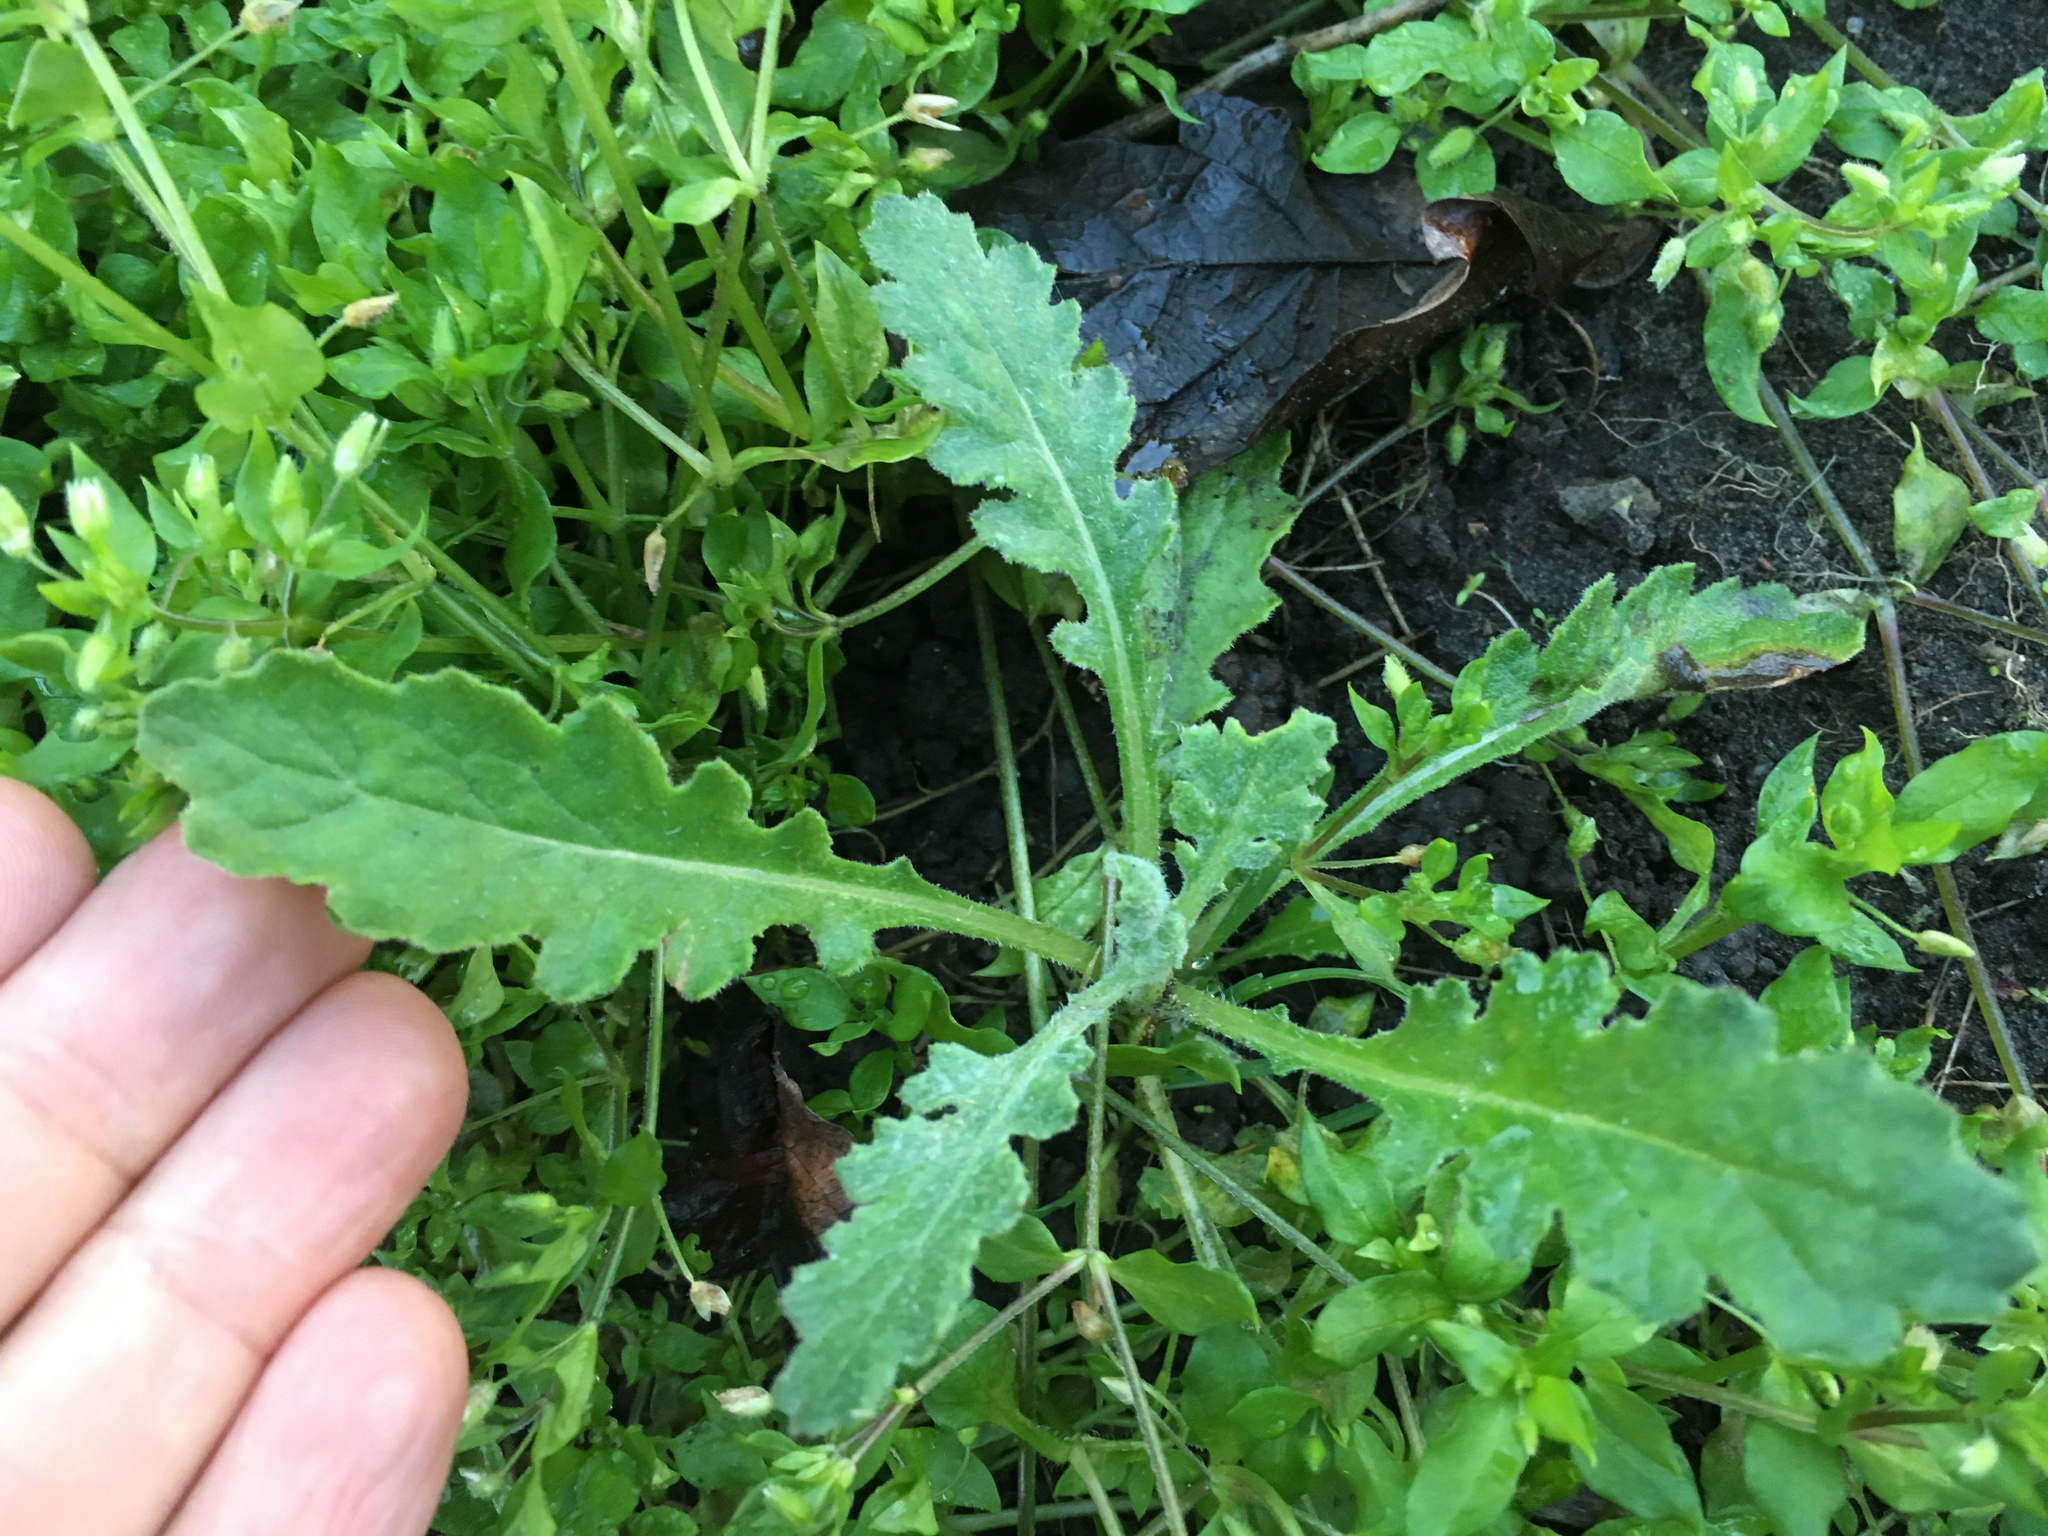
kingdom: Plantae
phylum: Tracheophyta
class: Magnoliopsida
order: Asterales
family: Asteraceae
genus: Senecio
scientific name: Senecio glomeratus
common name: Cutleaf burnweed
